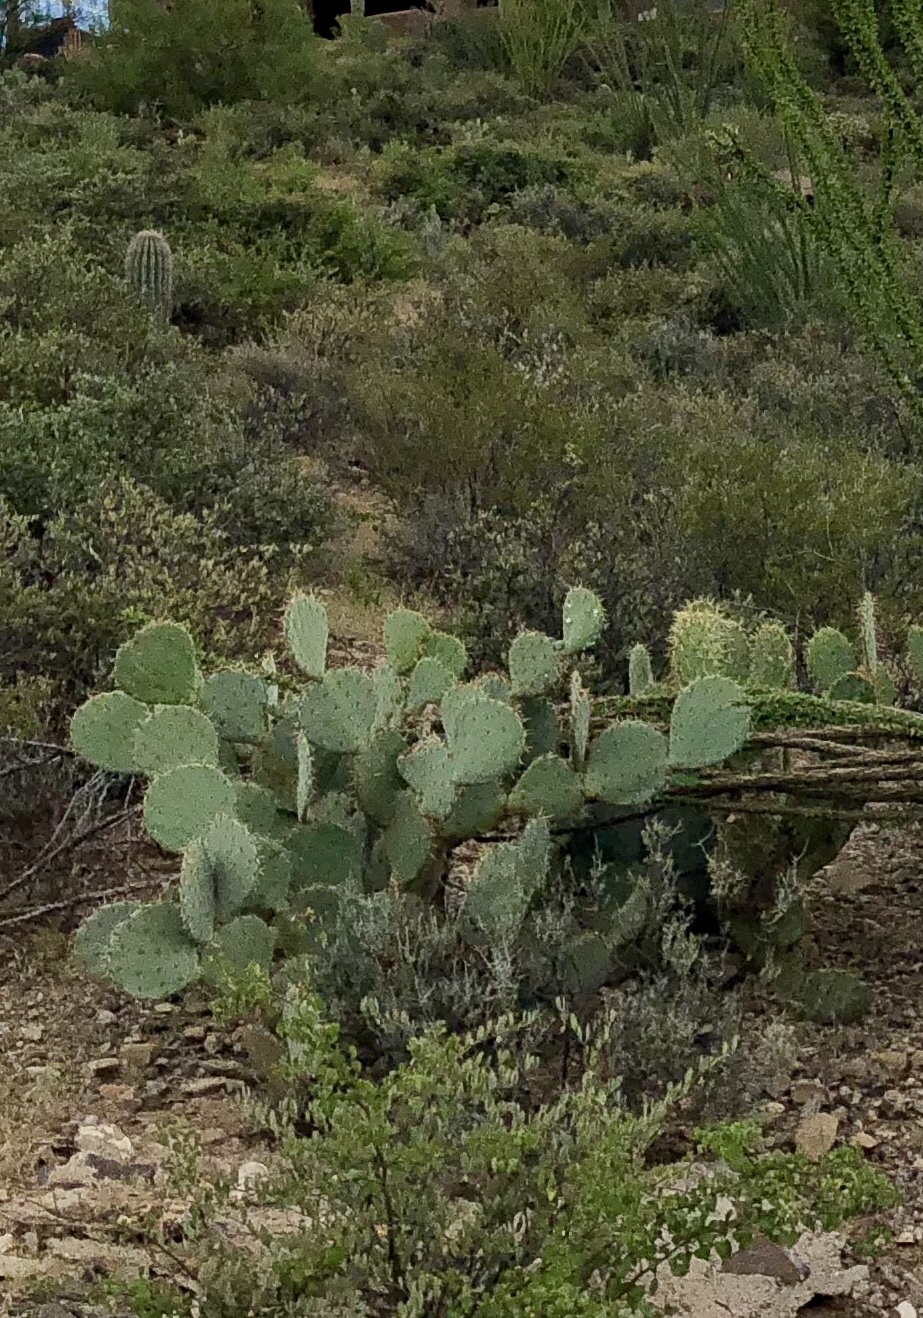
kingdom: Plantae
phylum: Tracheophyta
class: Magnoliopsida
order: Caryophyllales
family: Cactaceae
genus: Opuntia
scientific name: Opuntia engelmannii
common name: Cactus-apple
